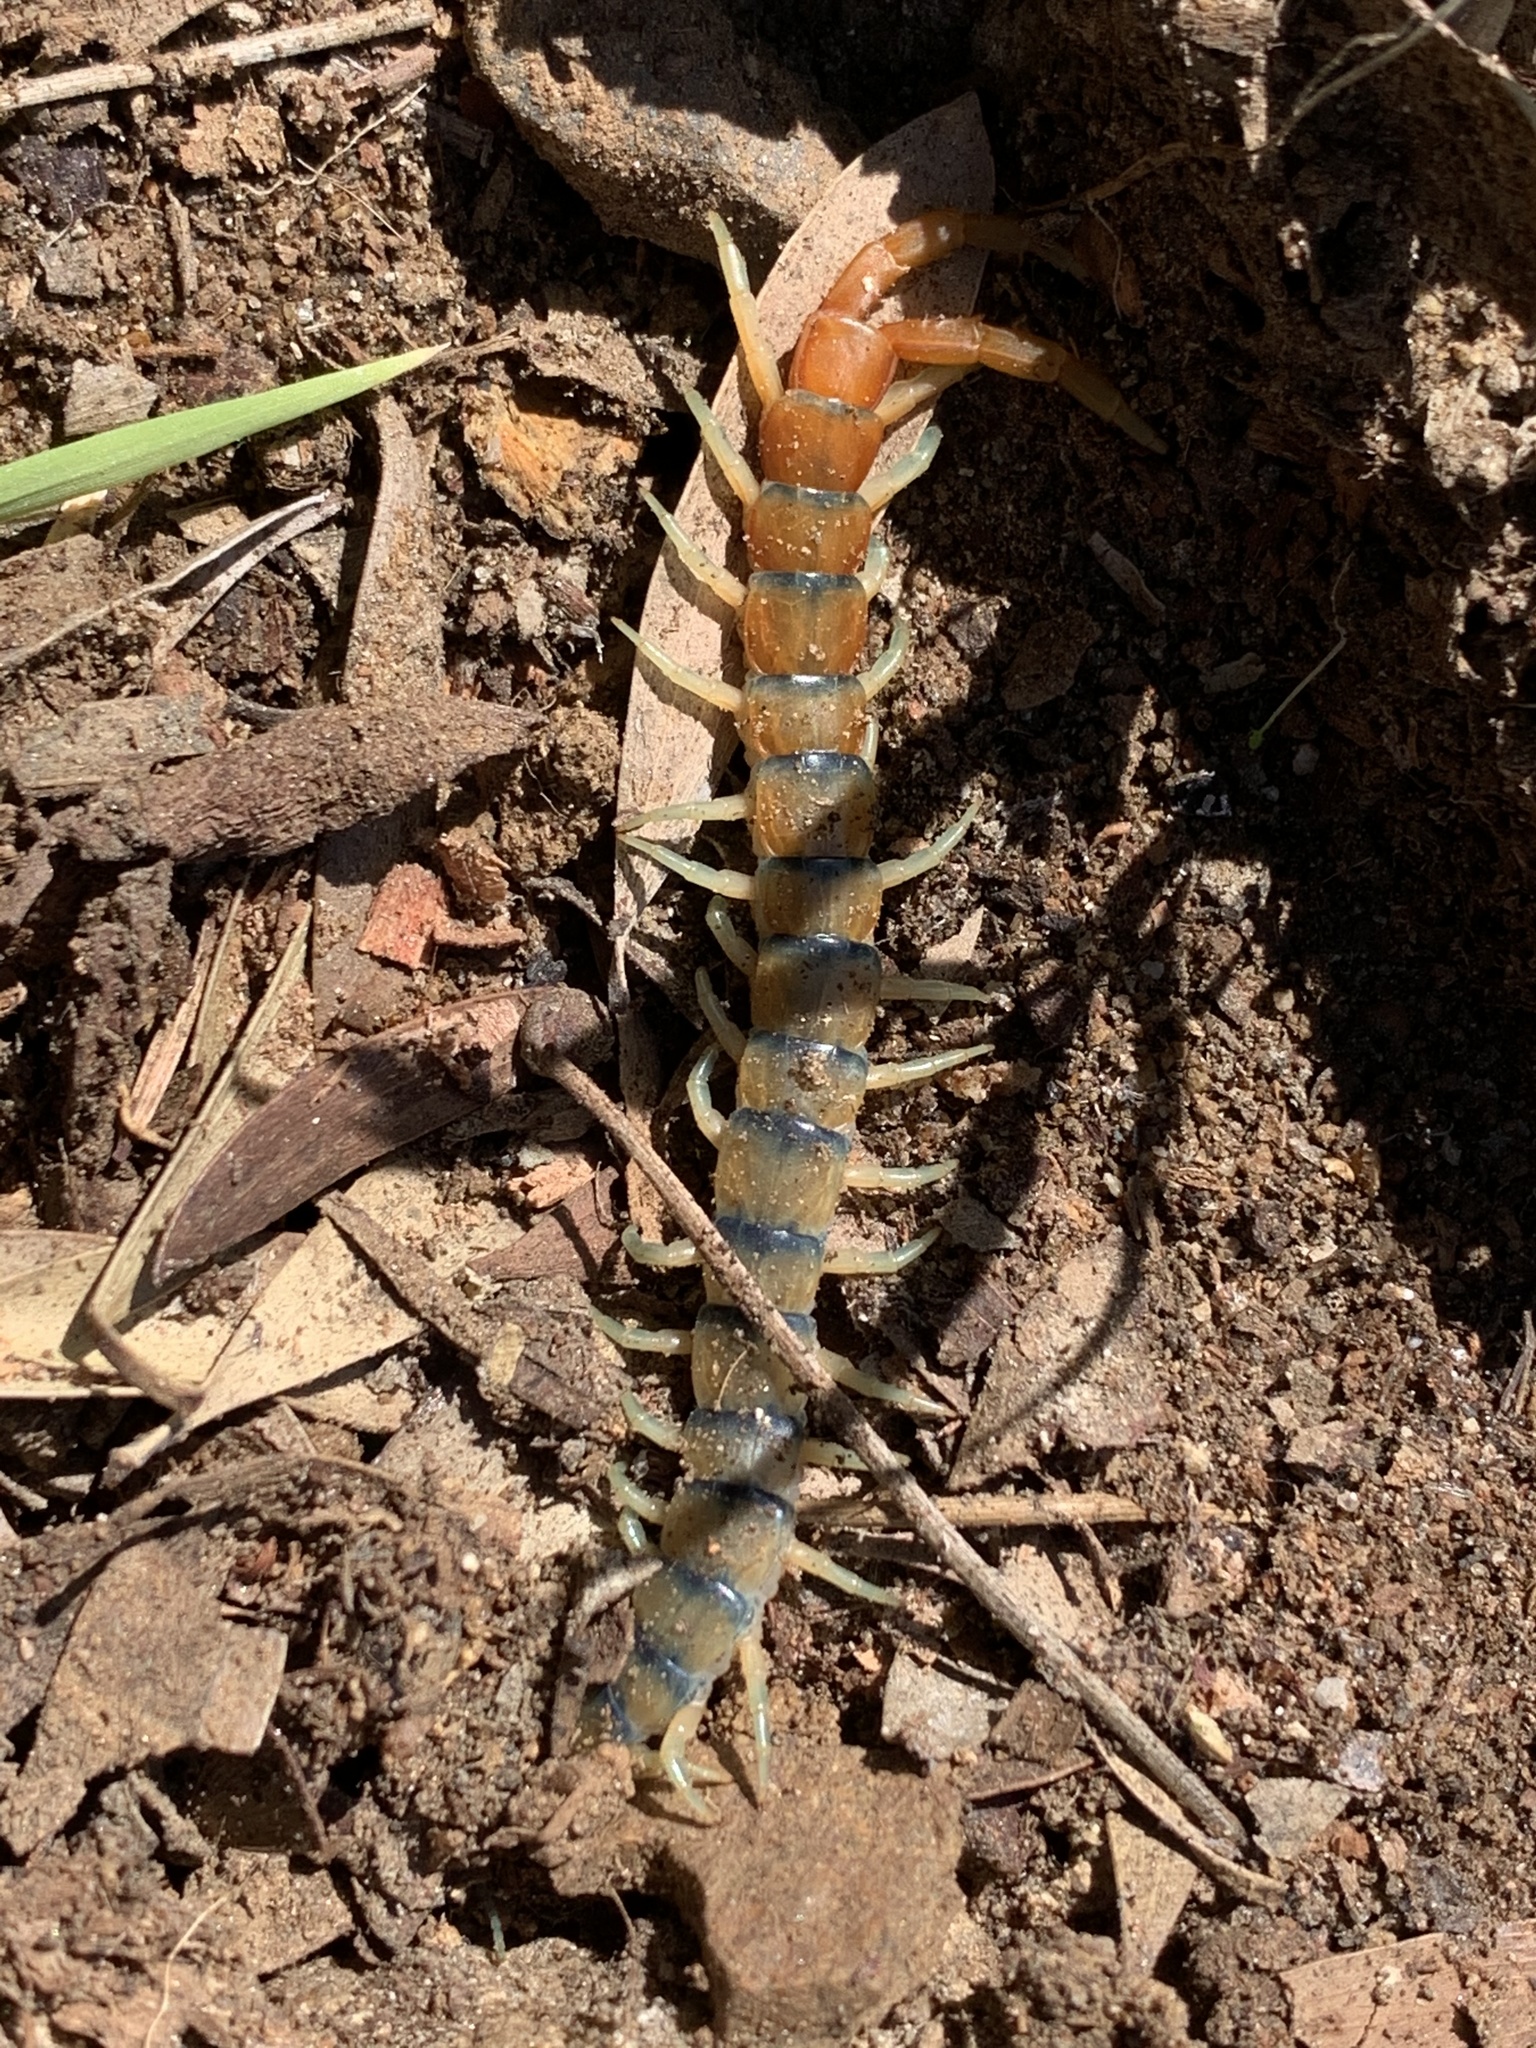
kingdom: Animalia
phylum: Arthropoda
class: Chilopoda
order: Scolopendromorpha
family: Scolopendridae
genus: Scolopendra
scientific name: Scolopendra polymorpha
